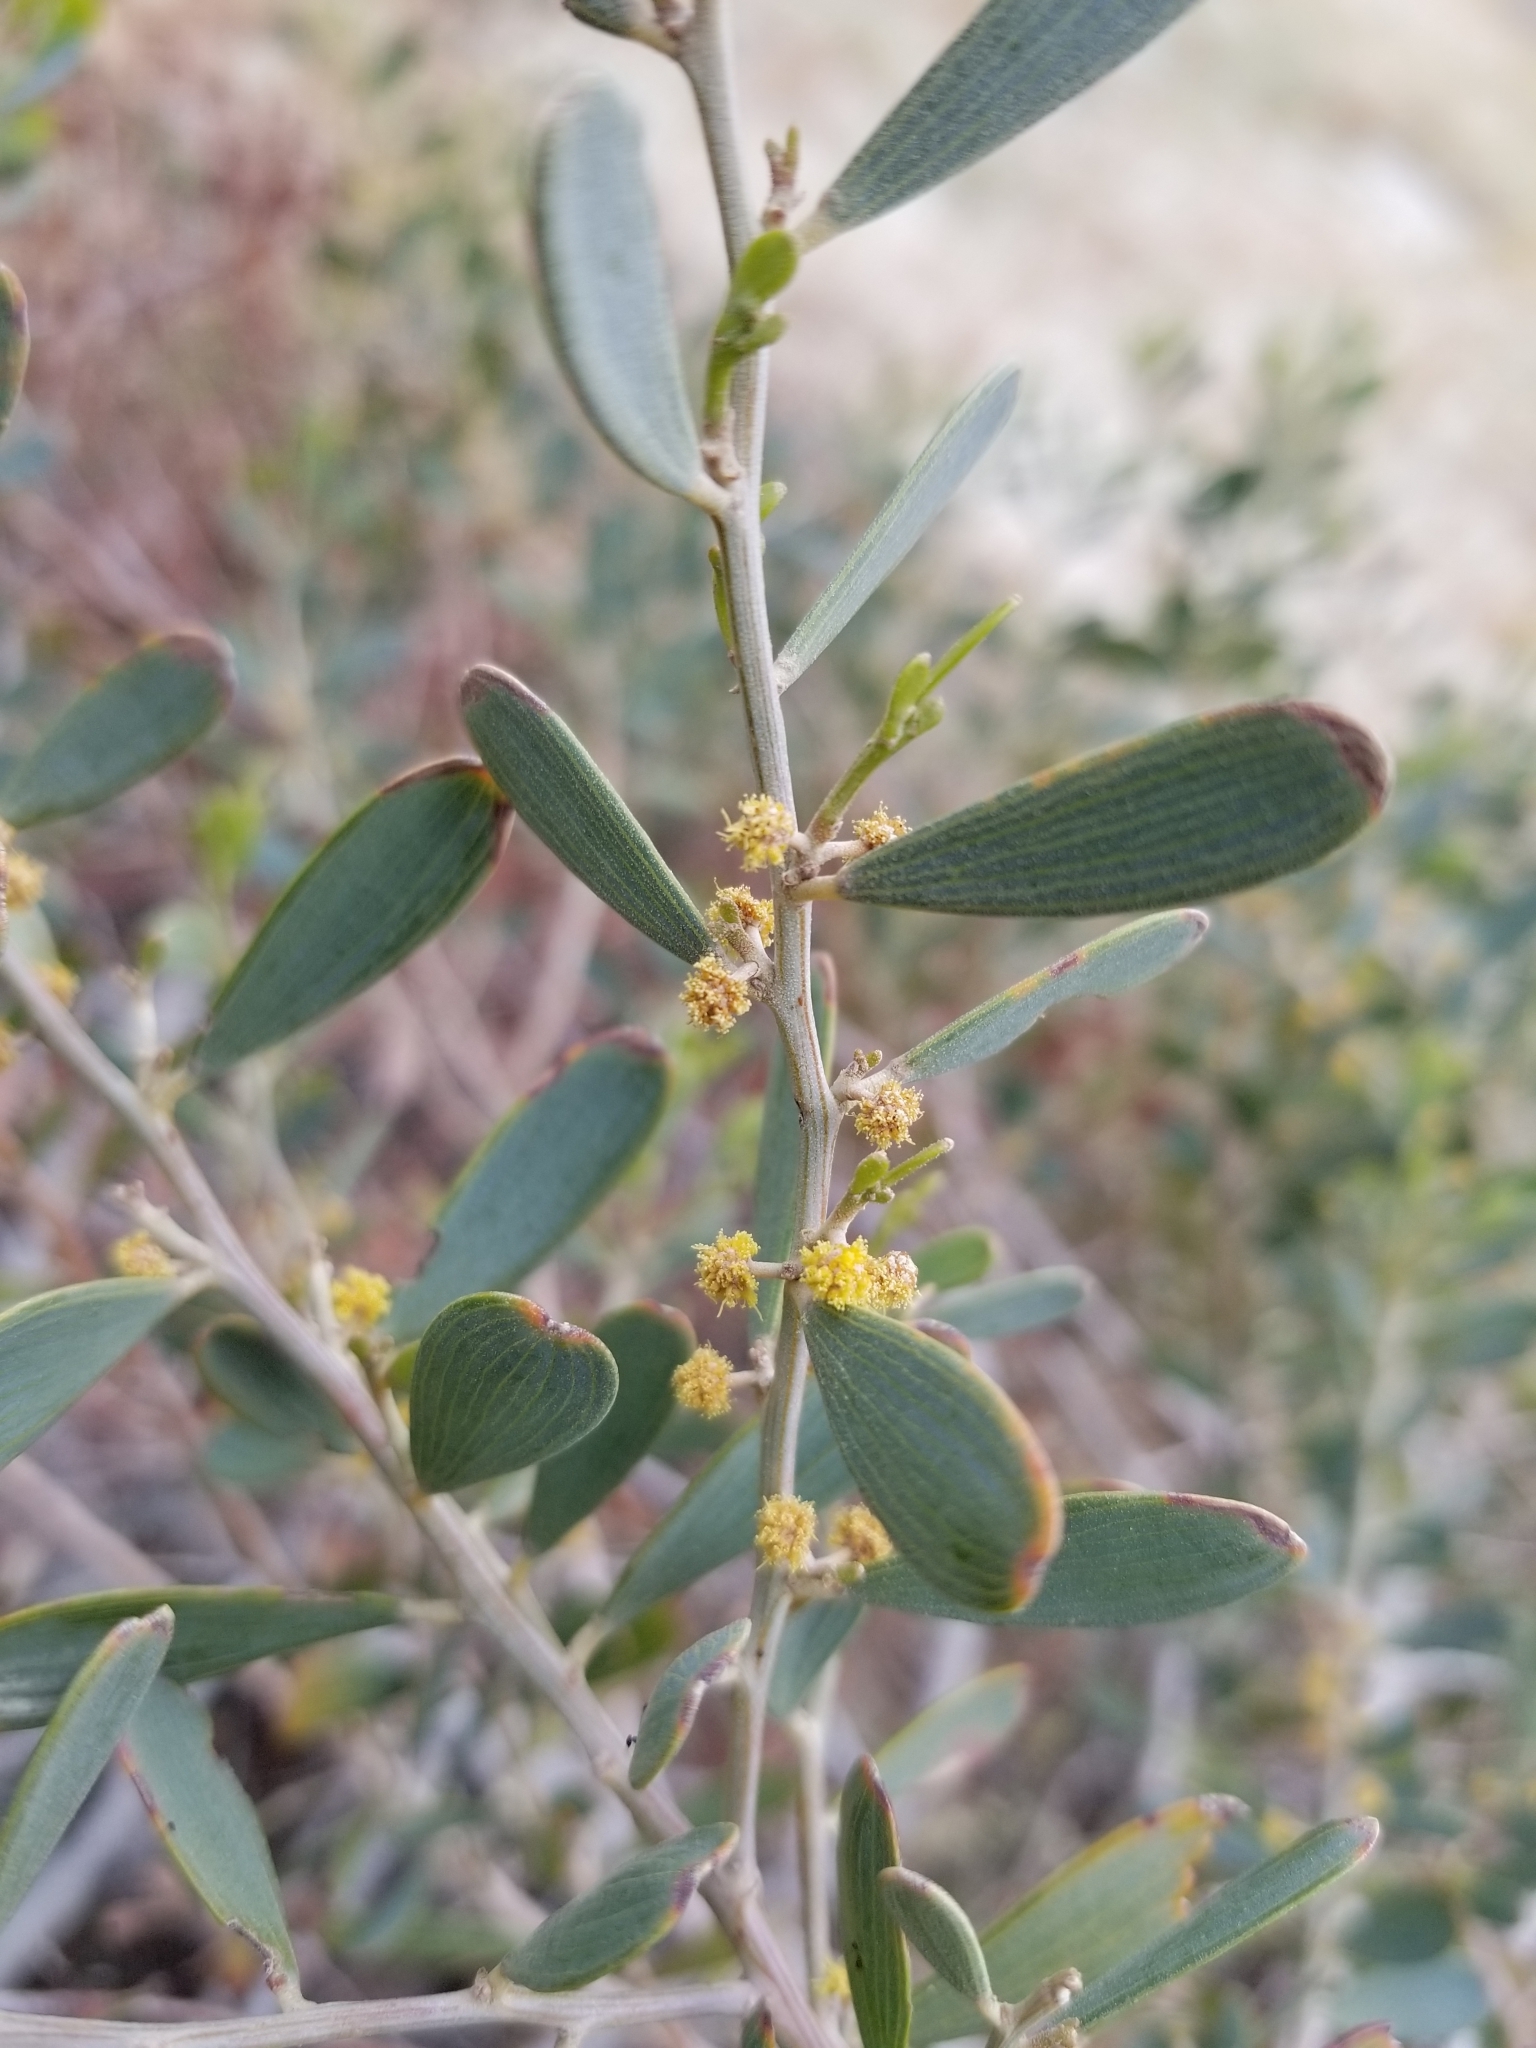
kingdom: Plantae
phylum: Tracheophyta
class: Magnoliopsida
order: Fabales
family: Fabaceae
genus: Acacia
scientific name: Acacia redolens
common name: Bank catclaw
